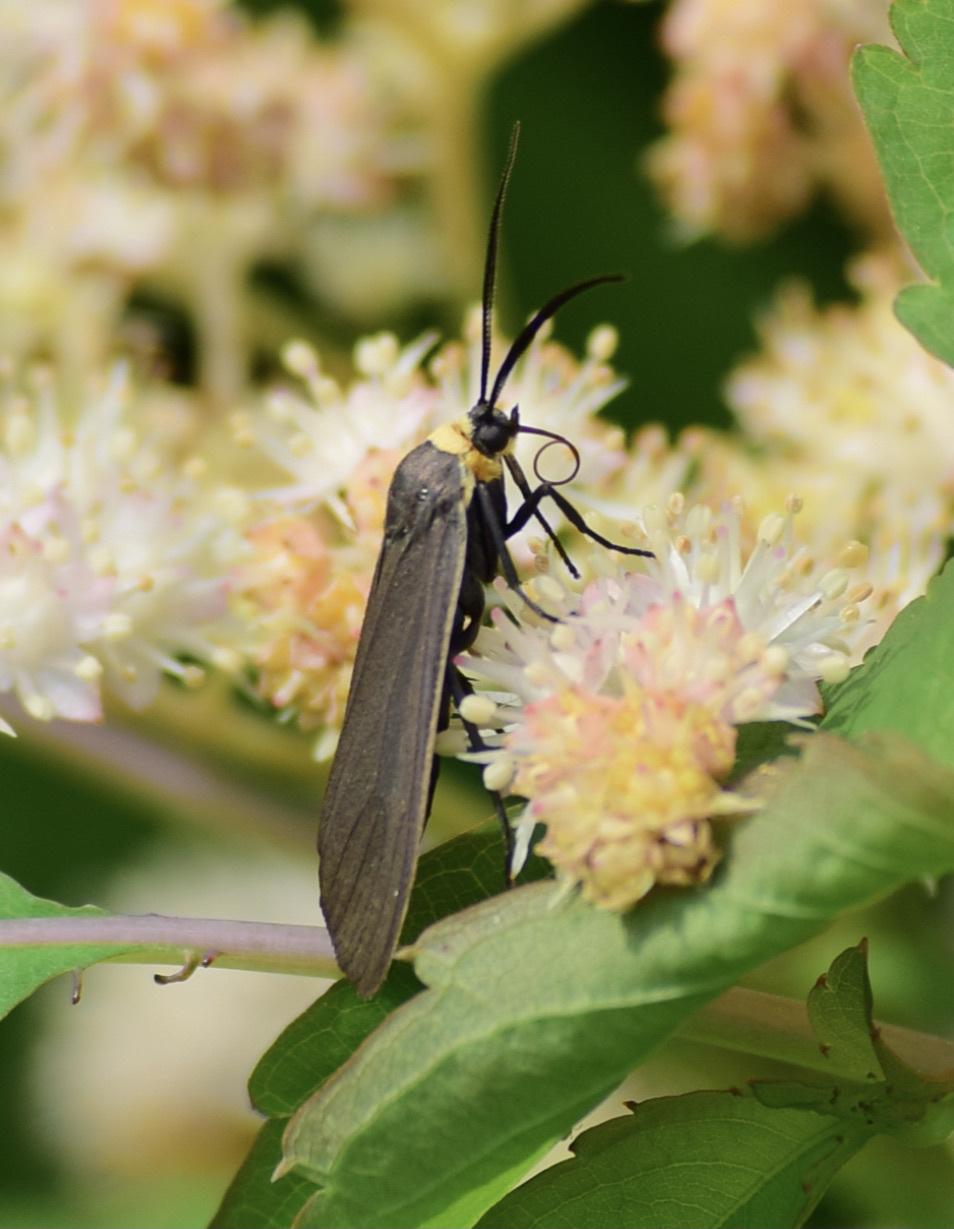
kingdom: Animalia
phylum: Arthropoda
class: Insecta
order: Lepidoptera
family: Erebidae
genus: Cisseps
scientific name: Cisseps fulvicollis
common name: Yellow-collared scape moth
